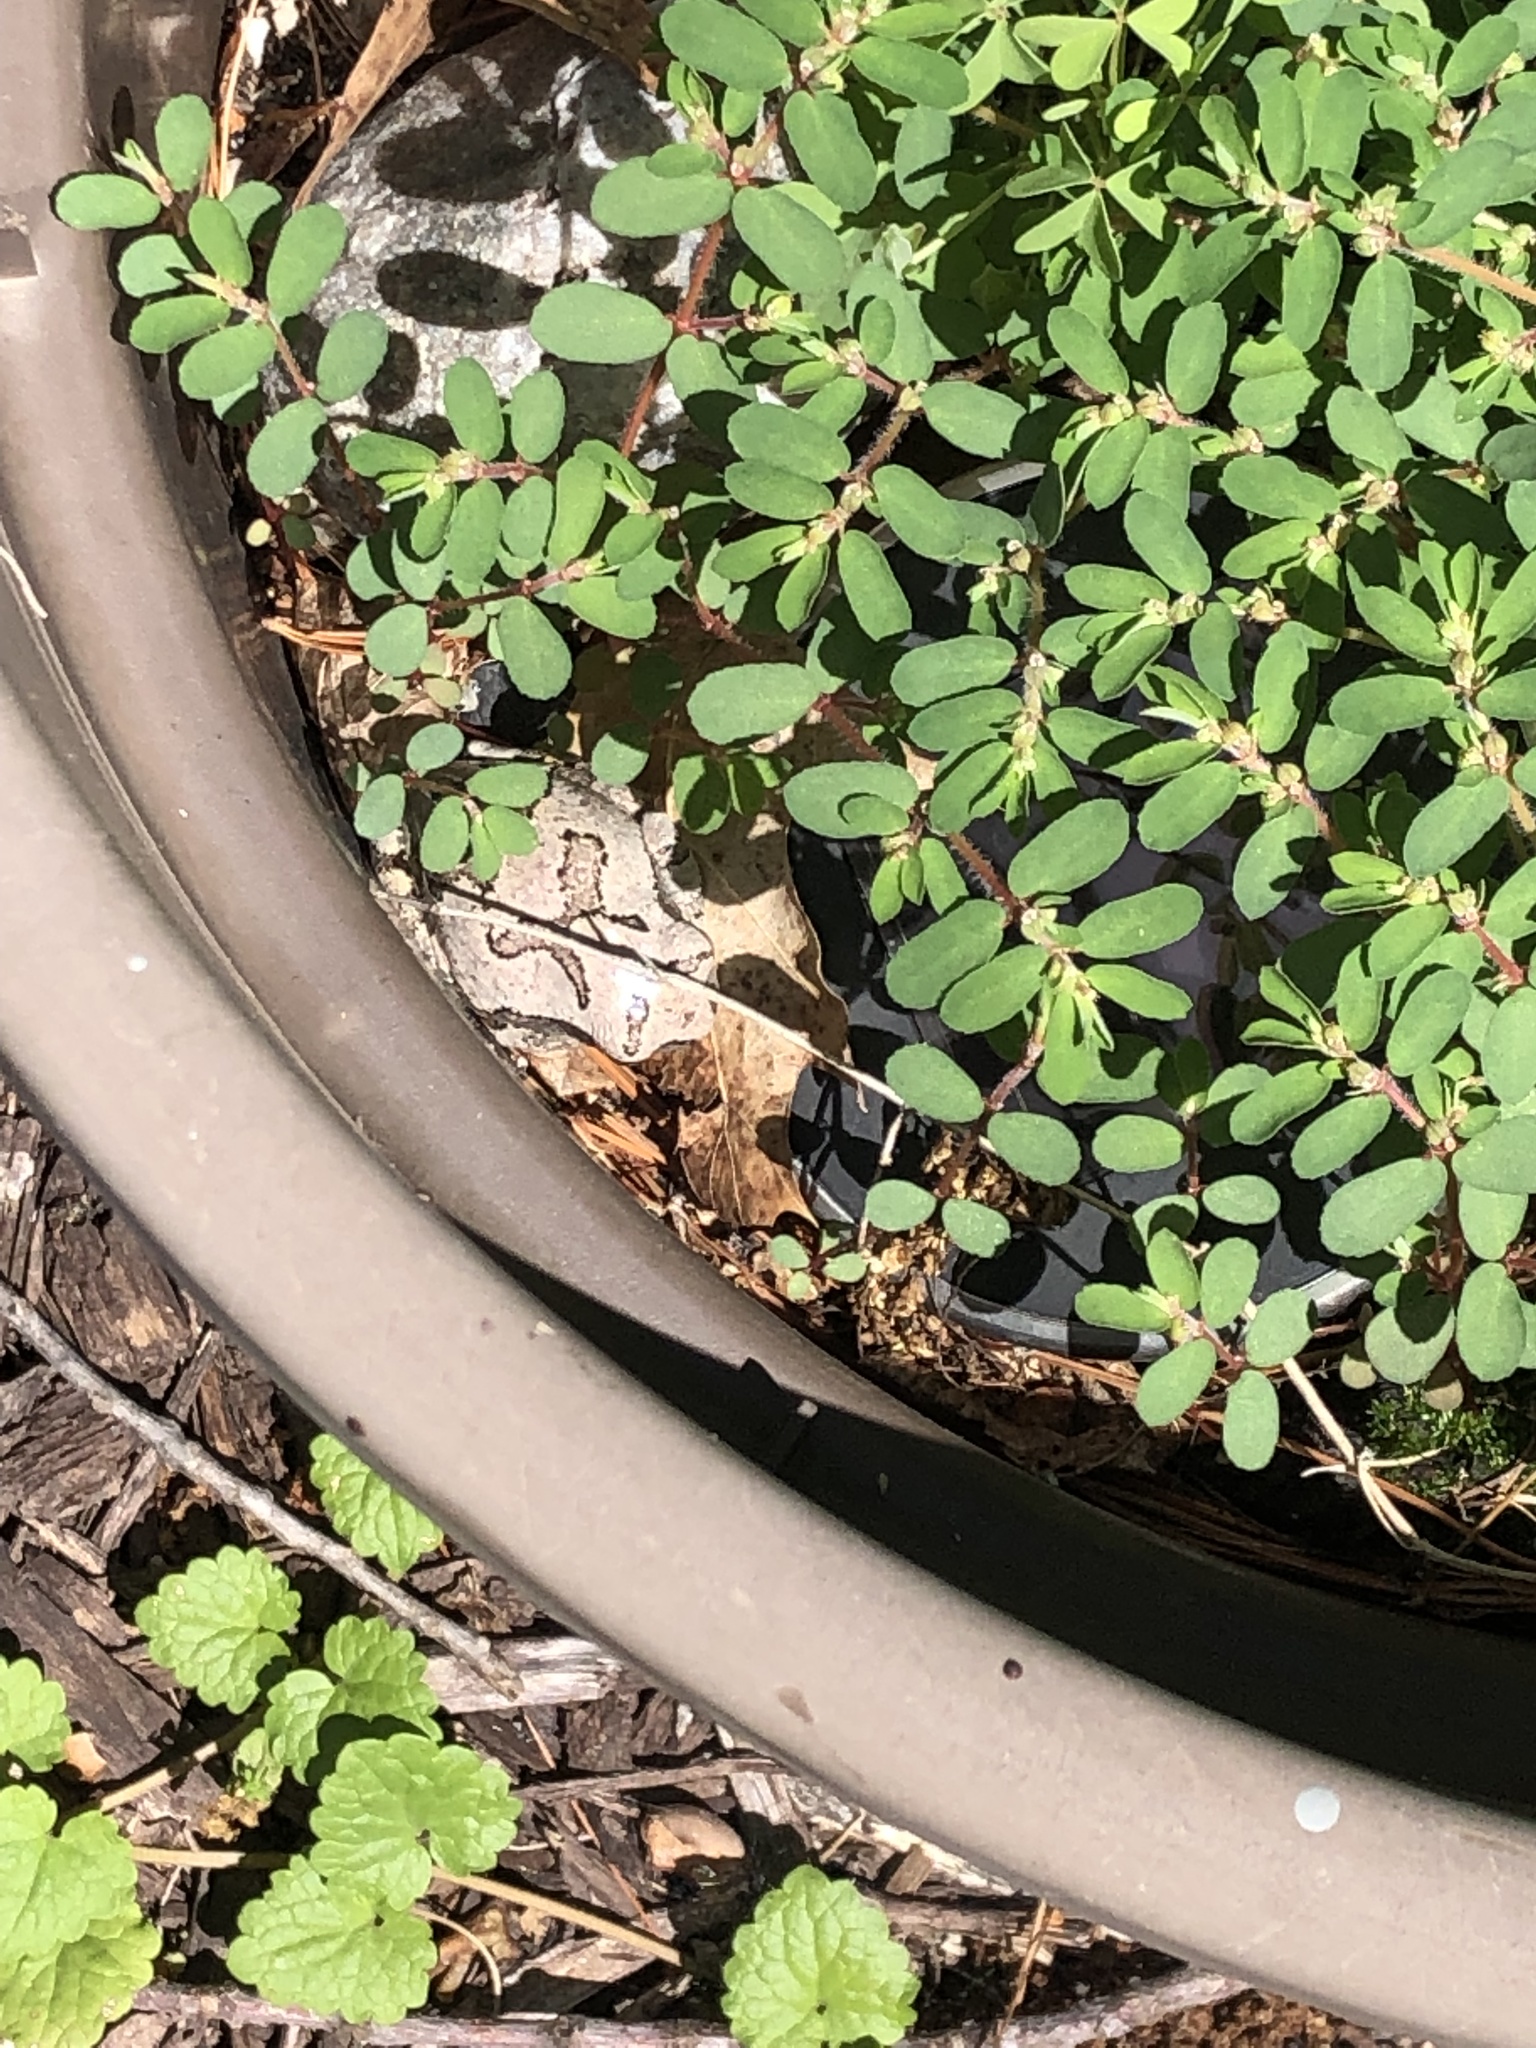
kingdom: Animalia
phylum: Chordata
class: Amphibia
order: Anura
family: Hylidae
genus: Hyla
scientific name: Hyla
